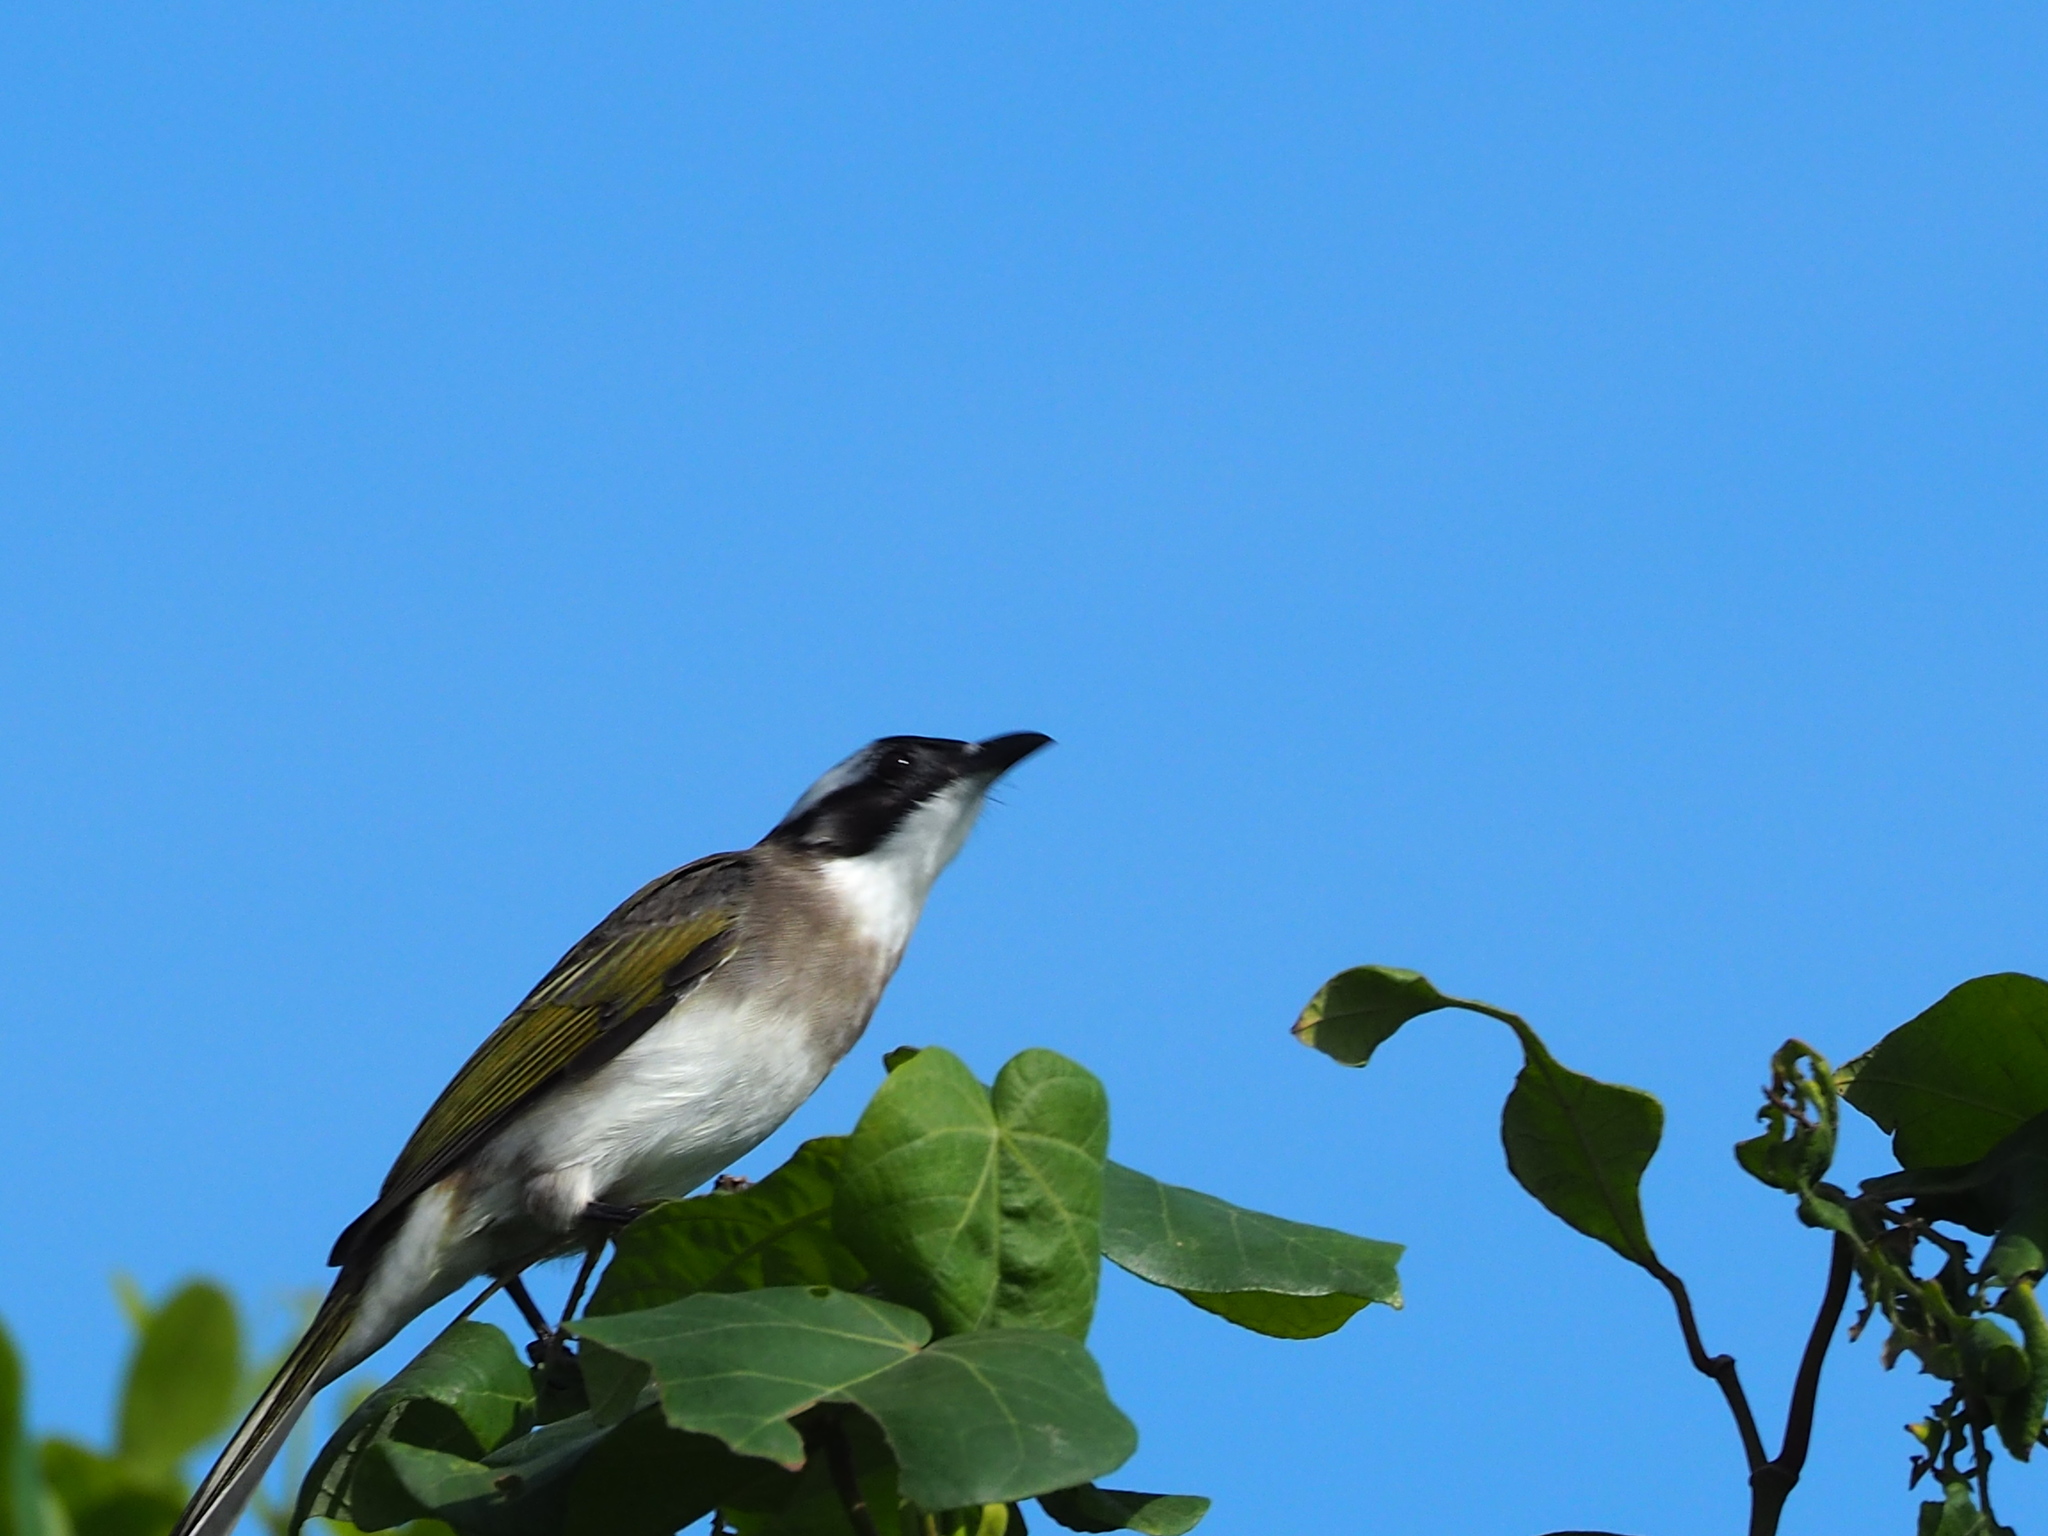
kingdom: Animalia
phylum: Chordata
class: Aves
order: Passeriformes
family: Pycnonotidae
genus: Pycnonotus
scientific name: Pycnonotus sinensis
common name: Light-vented bulbul
